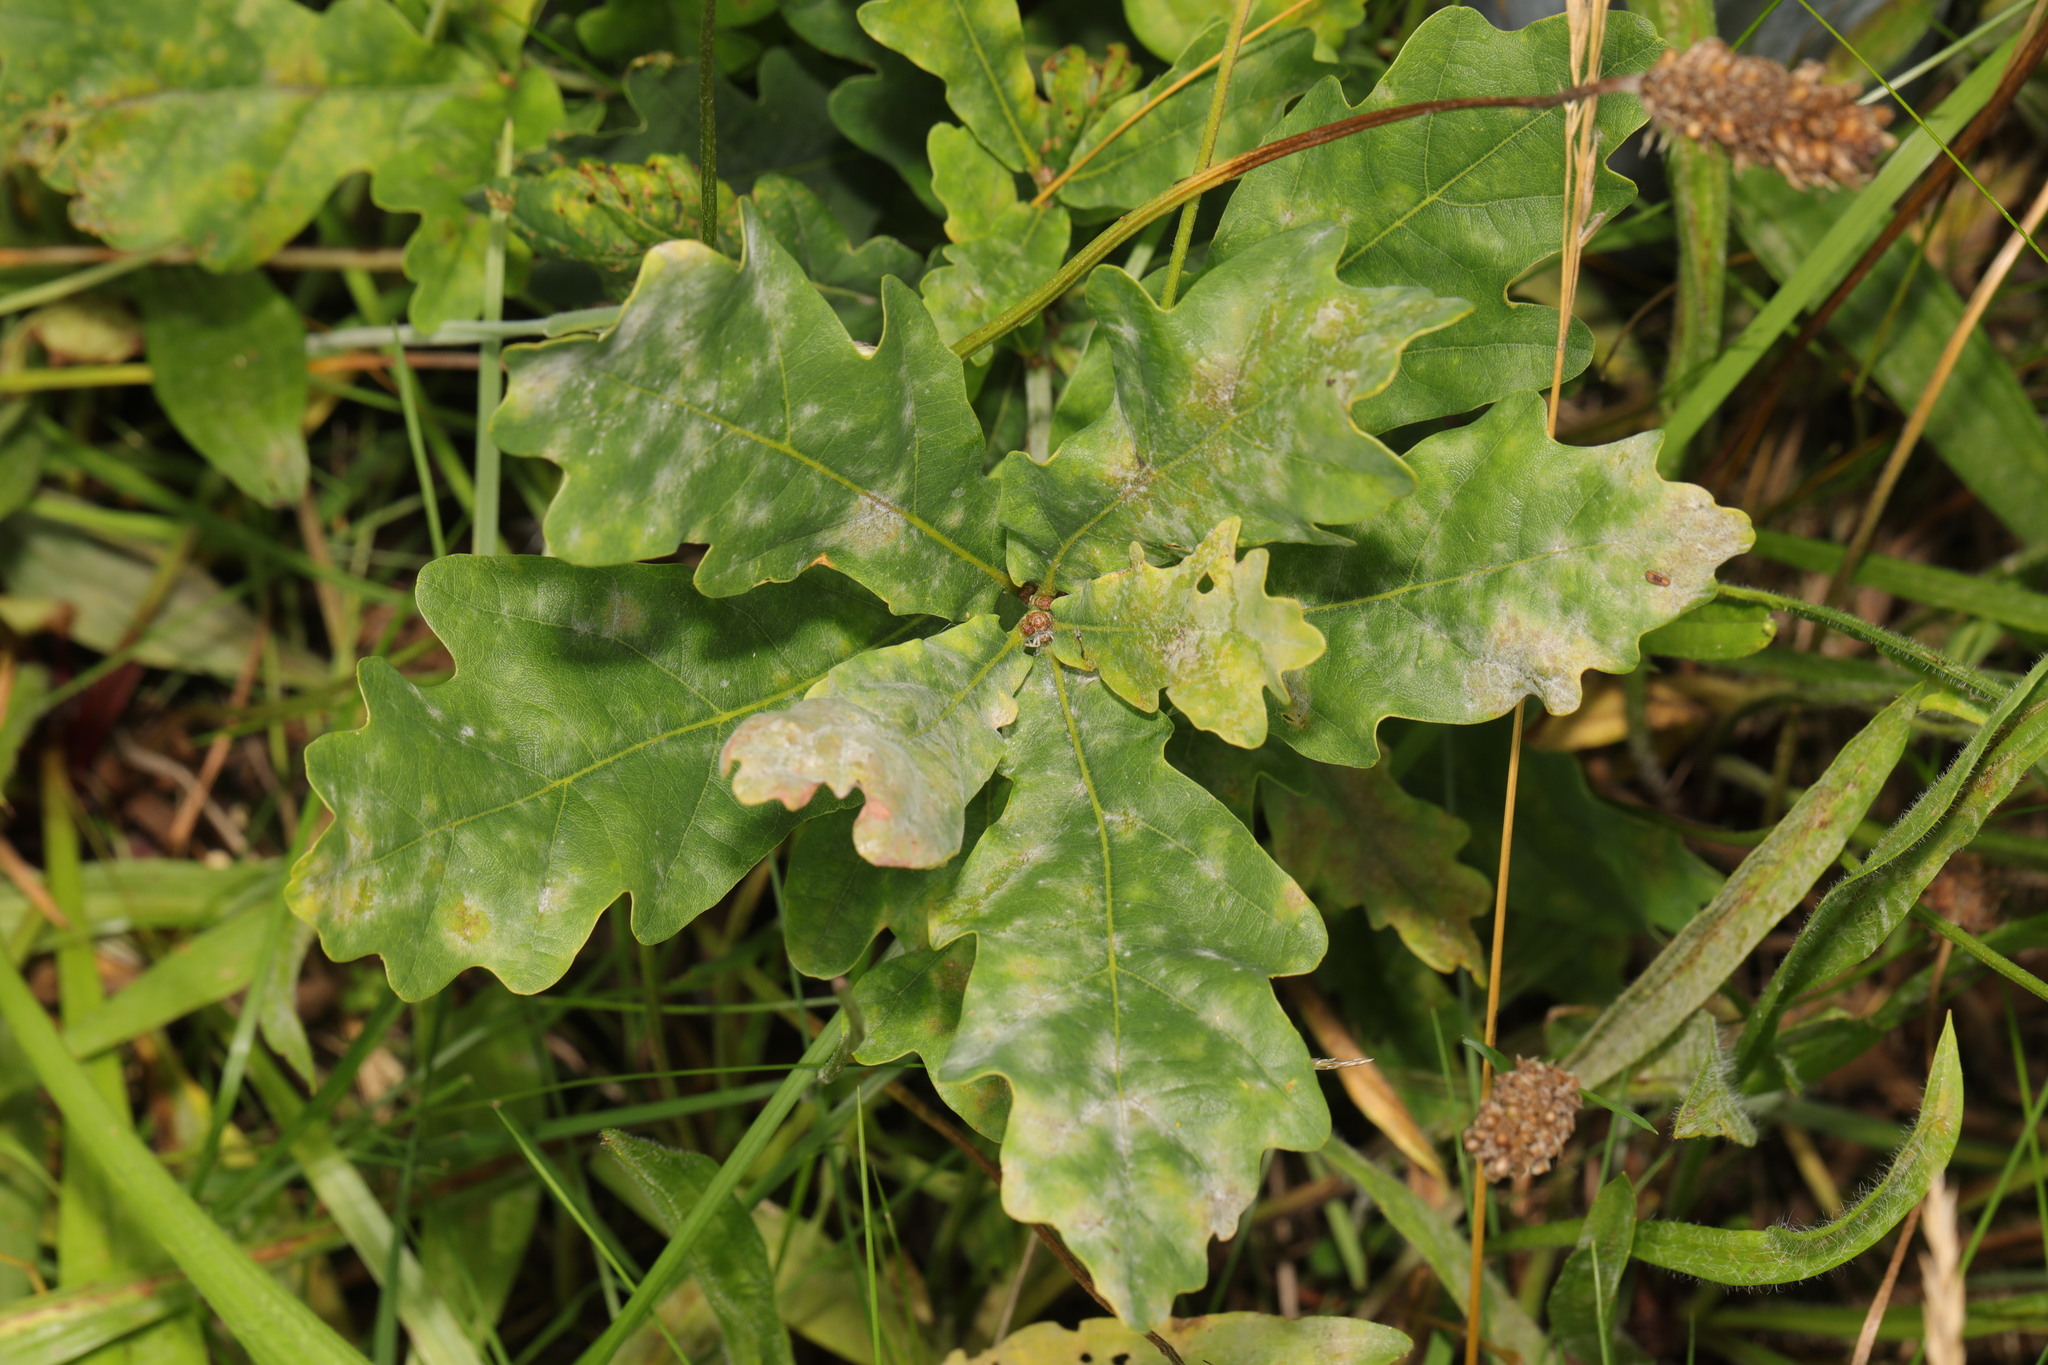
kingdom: Fungi
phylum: Ascomycota
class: Leotiomycetes
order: Helotiales
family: Erysiphaceae
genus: Erysiphe
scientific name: Erysiphe alphitoides
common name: Oak mildew
